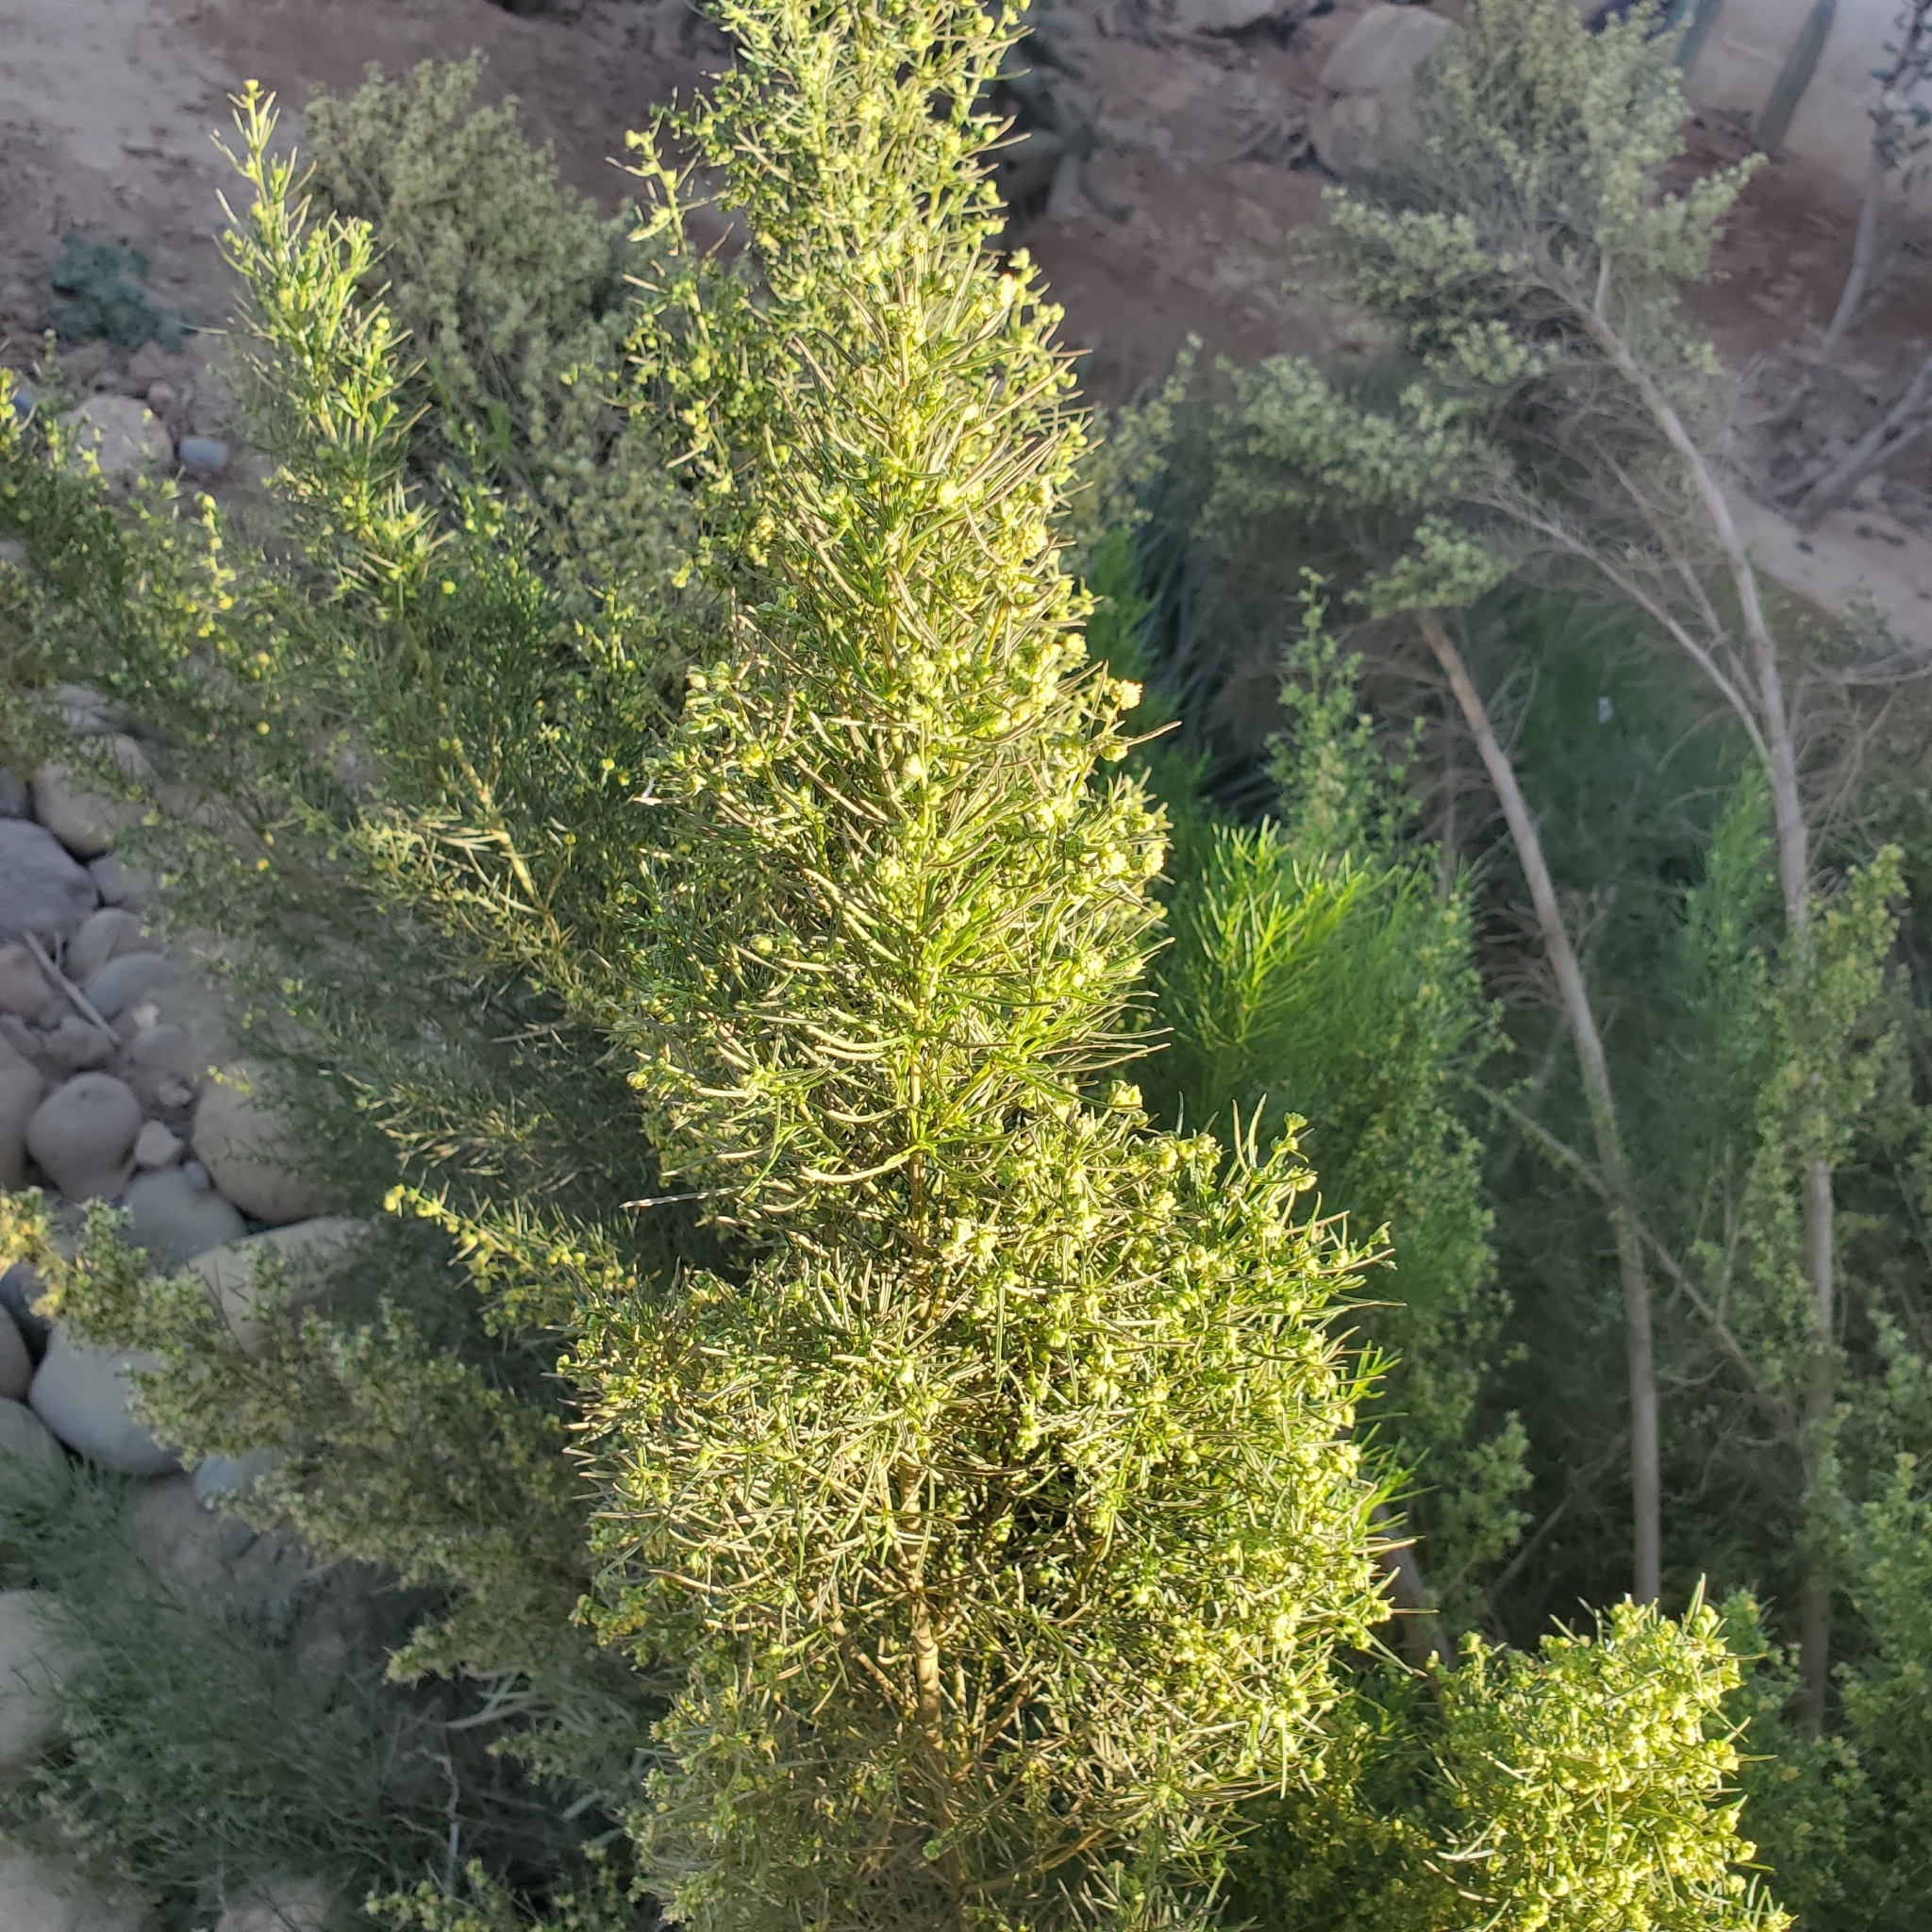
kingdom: Plantae
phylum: Tracheophyta
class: Magnoliopsida
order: Asterales
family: Asteraceae
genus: Ambrosia
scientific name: Ambrosia monogyra
